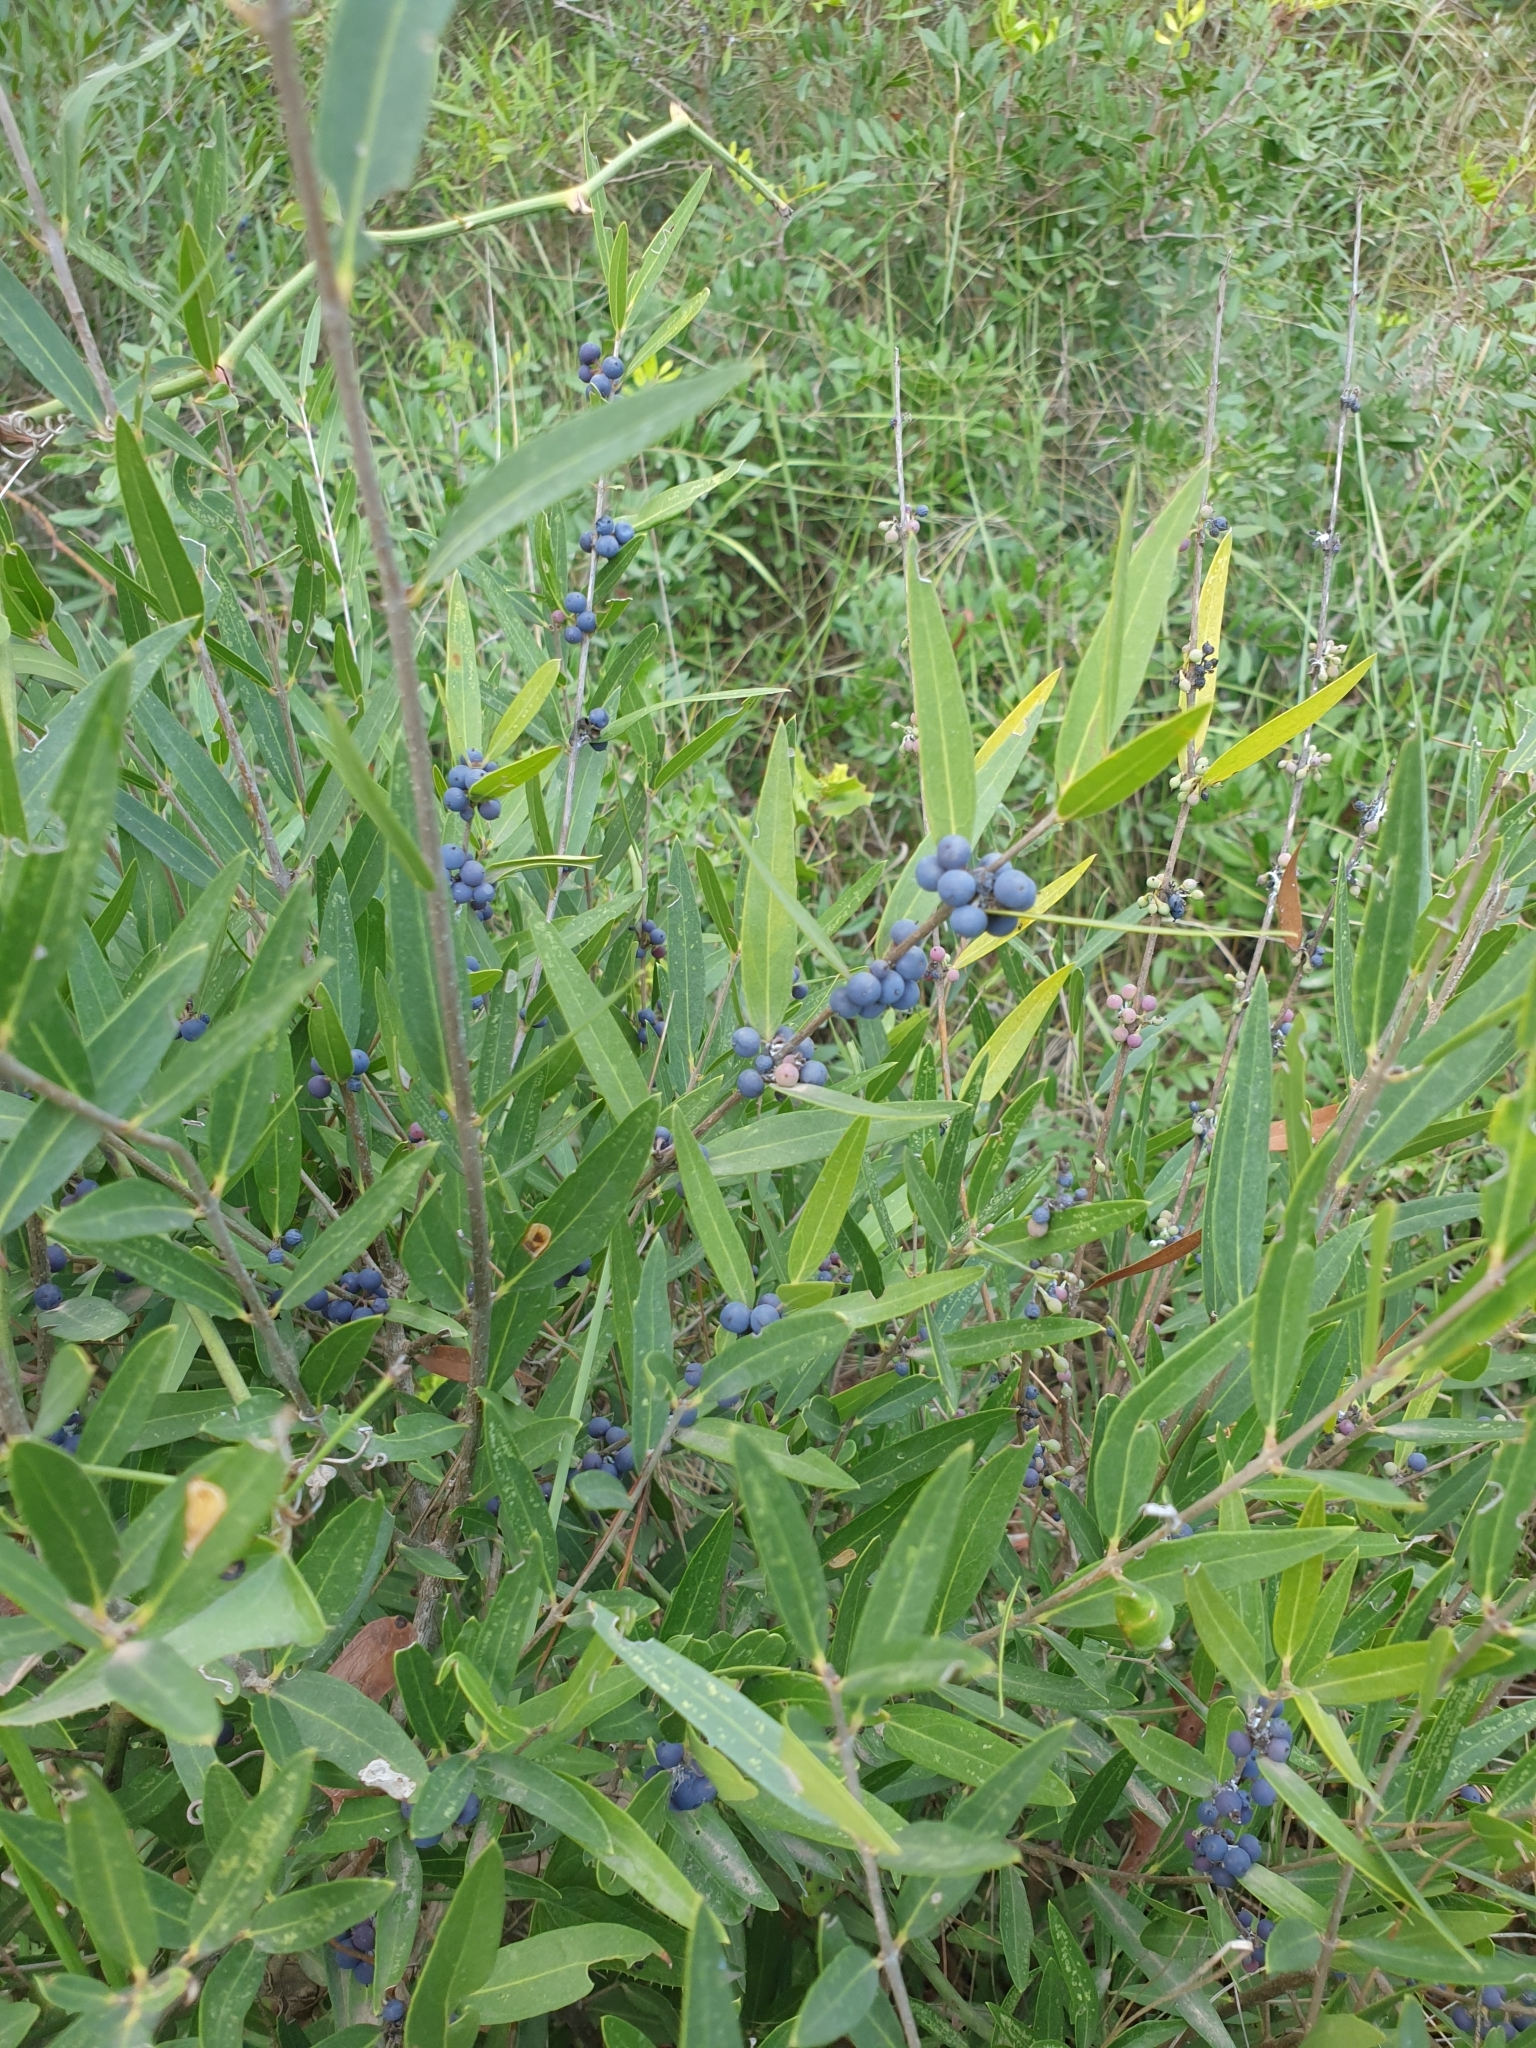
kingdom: Plantae
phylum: Tracheophyta
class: Magnoliopsida
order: Lamiales
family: Oleaceae
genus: Phillyrea
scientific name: Phillyrea angustifolia
